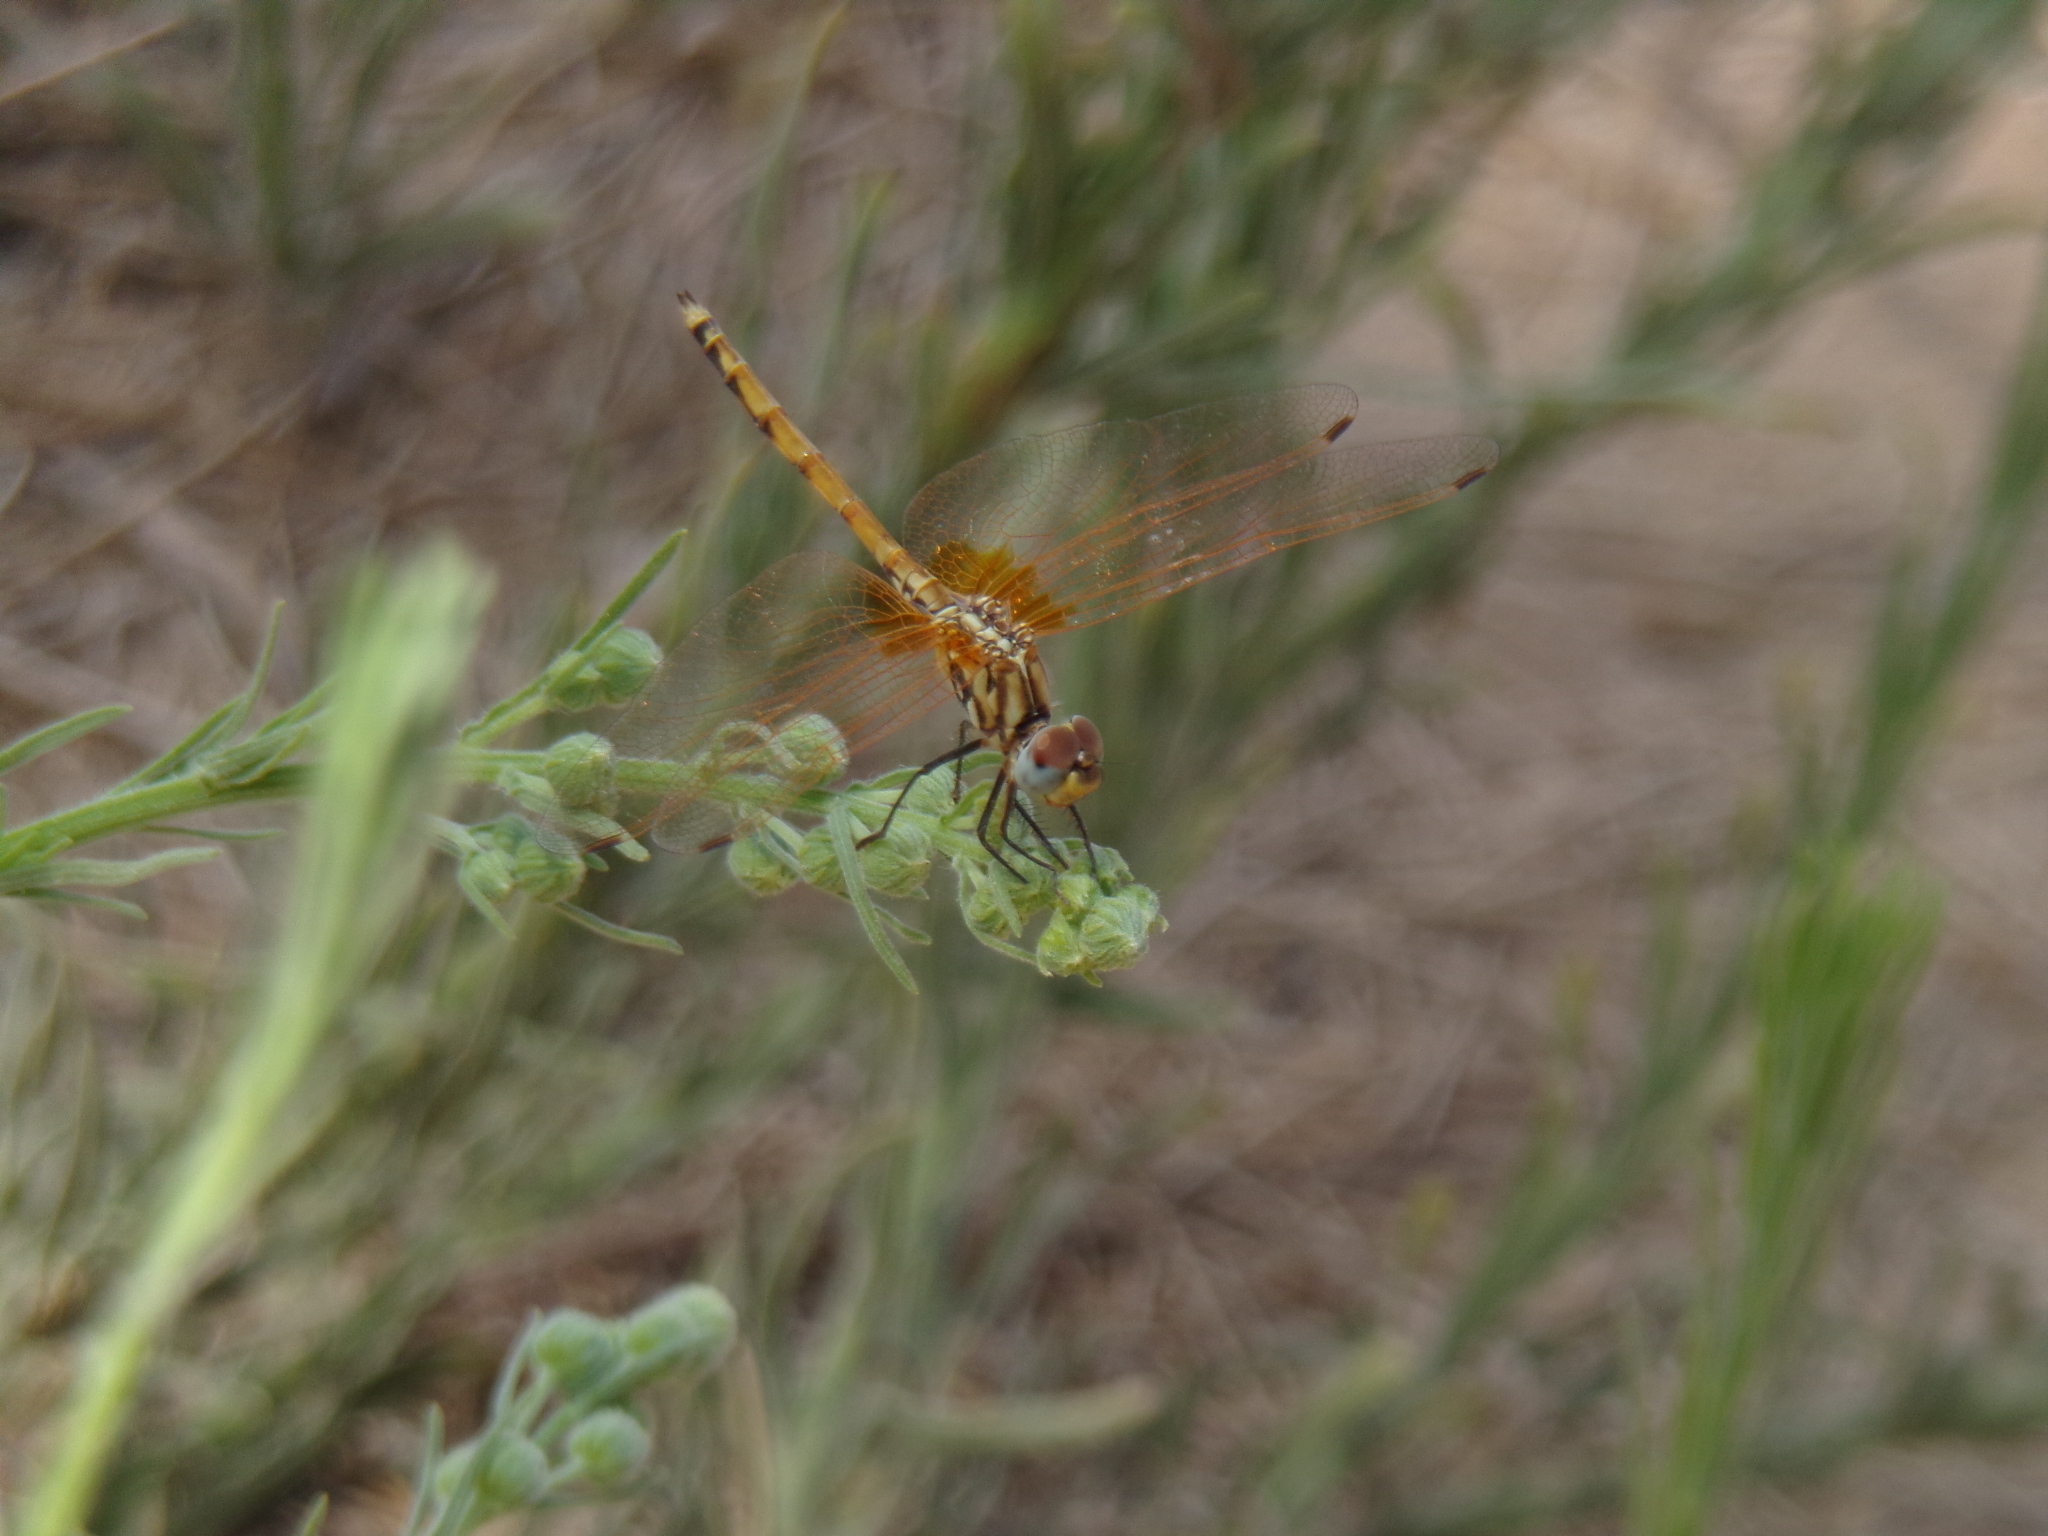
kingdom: Animalia
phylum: Arthropoda
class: Insecta
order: Odonata
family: Libellulidae
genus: Trithemis
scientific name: Trithemis arteriosa
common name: Red-veined dropwing
